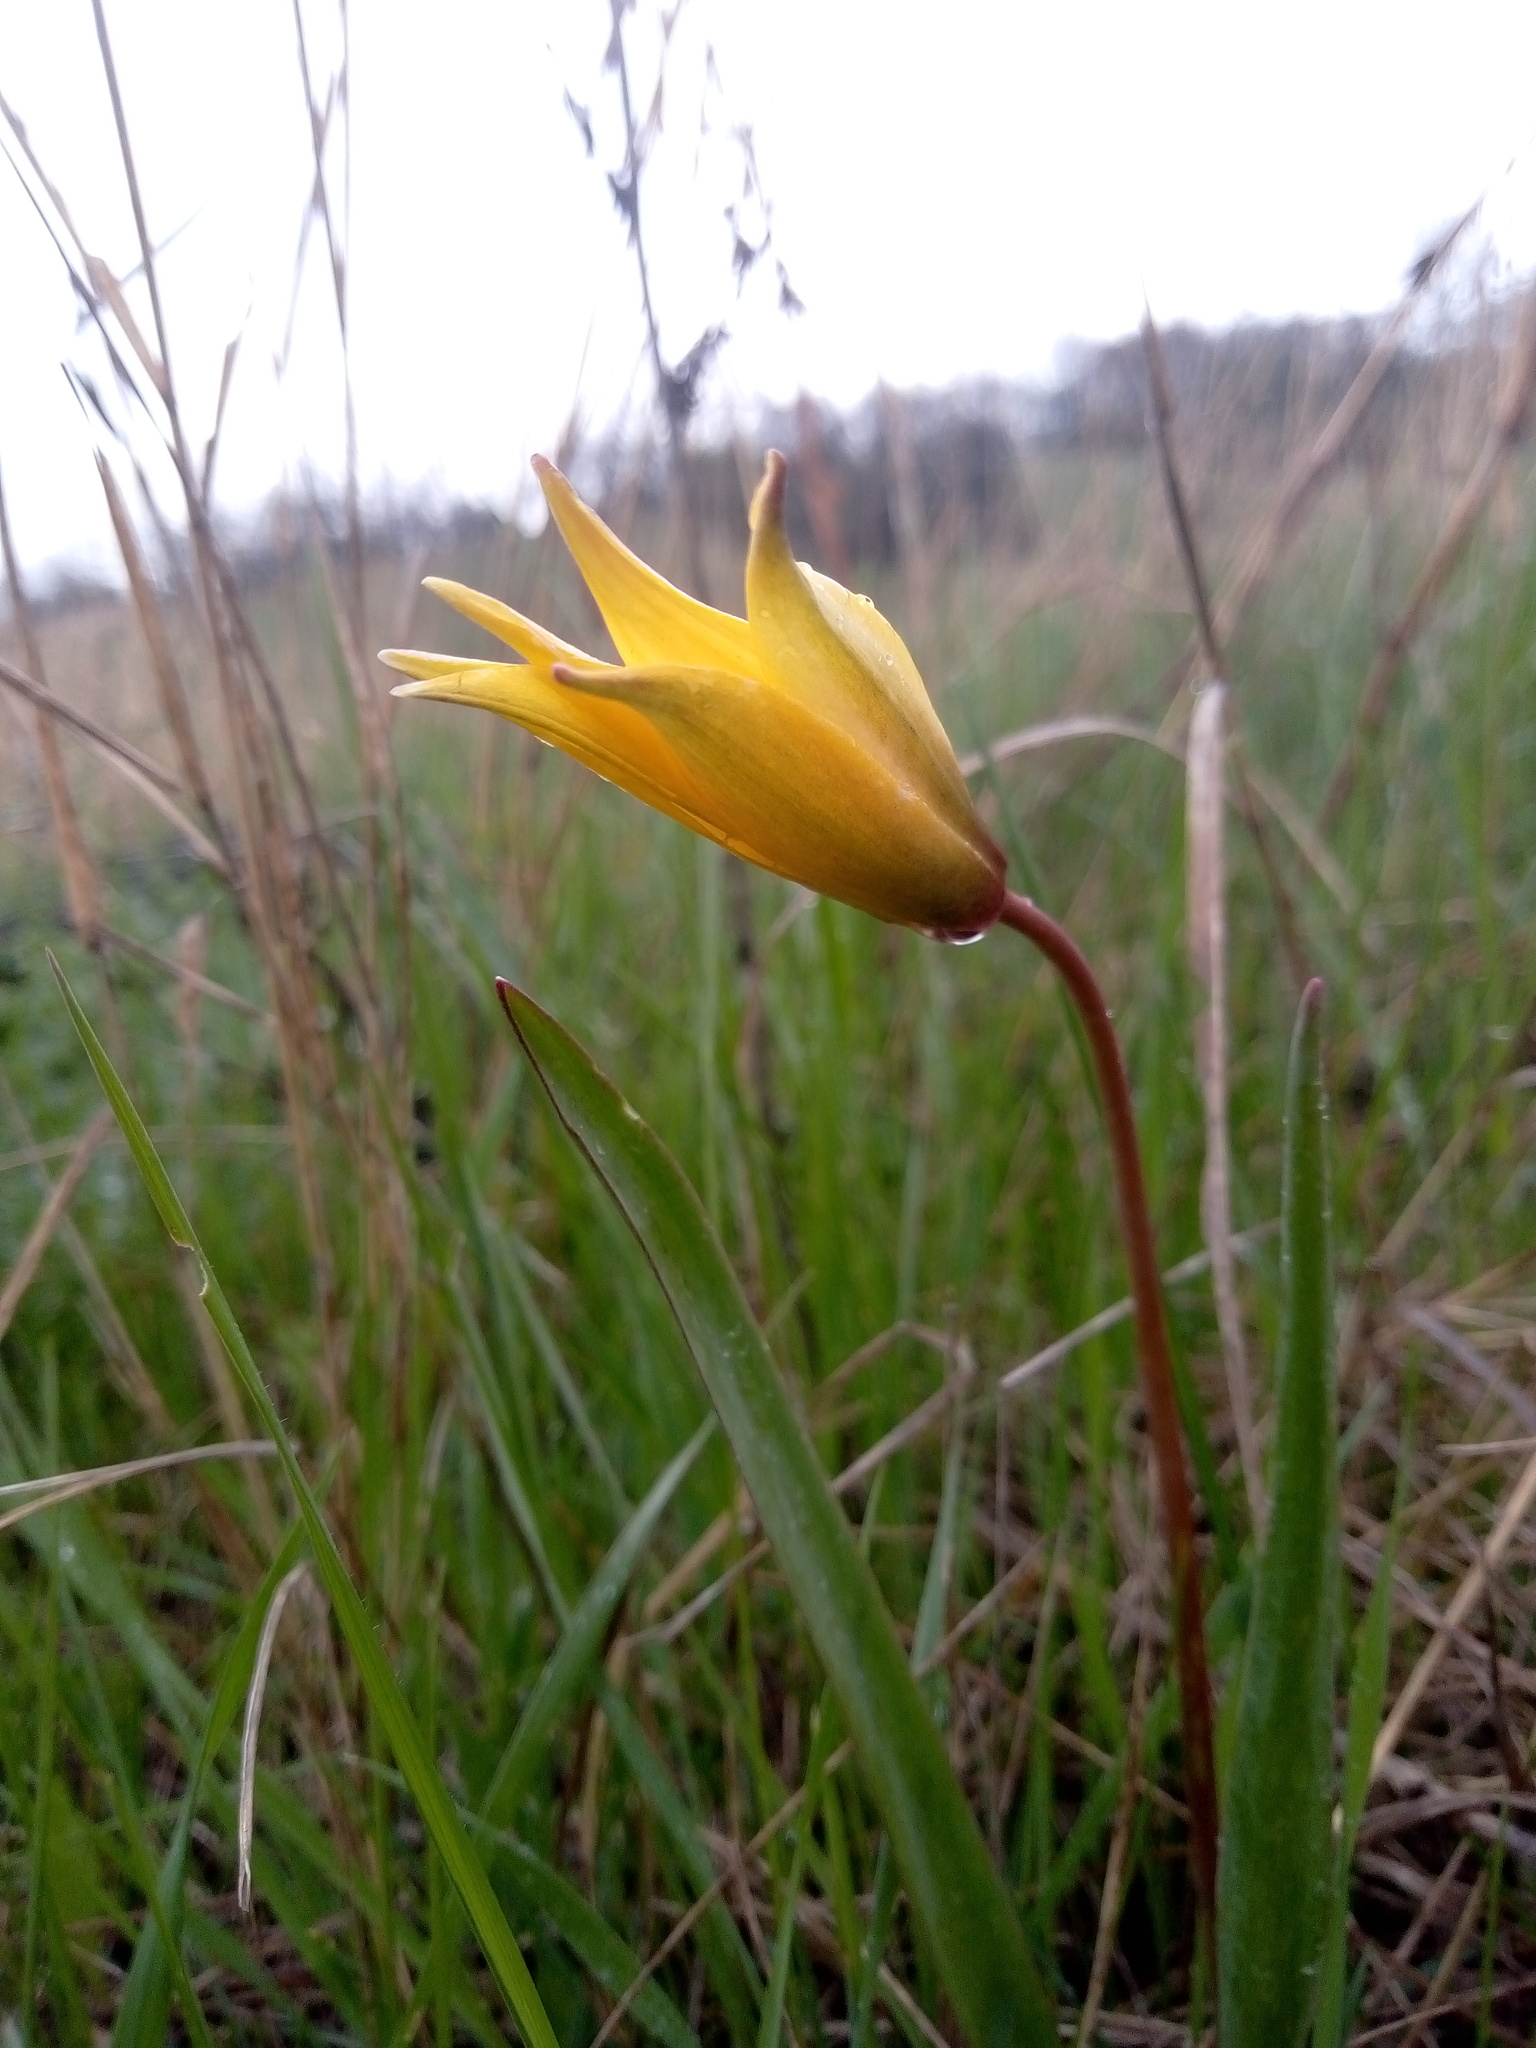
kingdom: Plantae
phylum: Tracheophyta
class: Liliopsida
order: Liliales
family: Liliaceae
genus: Tulipa
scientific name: Tulipa sylvestris
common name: Wild tulip
